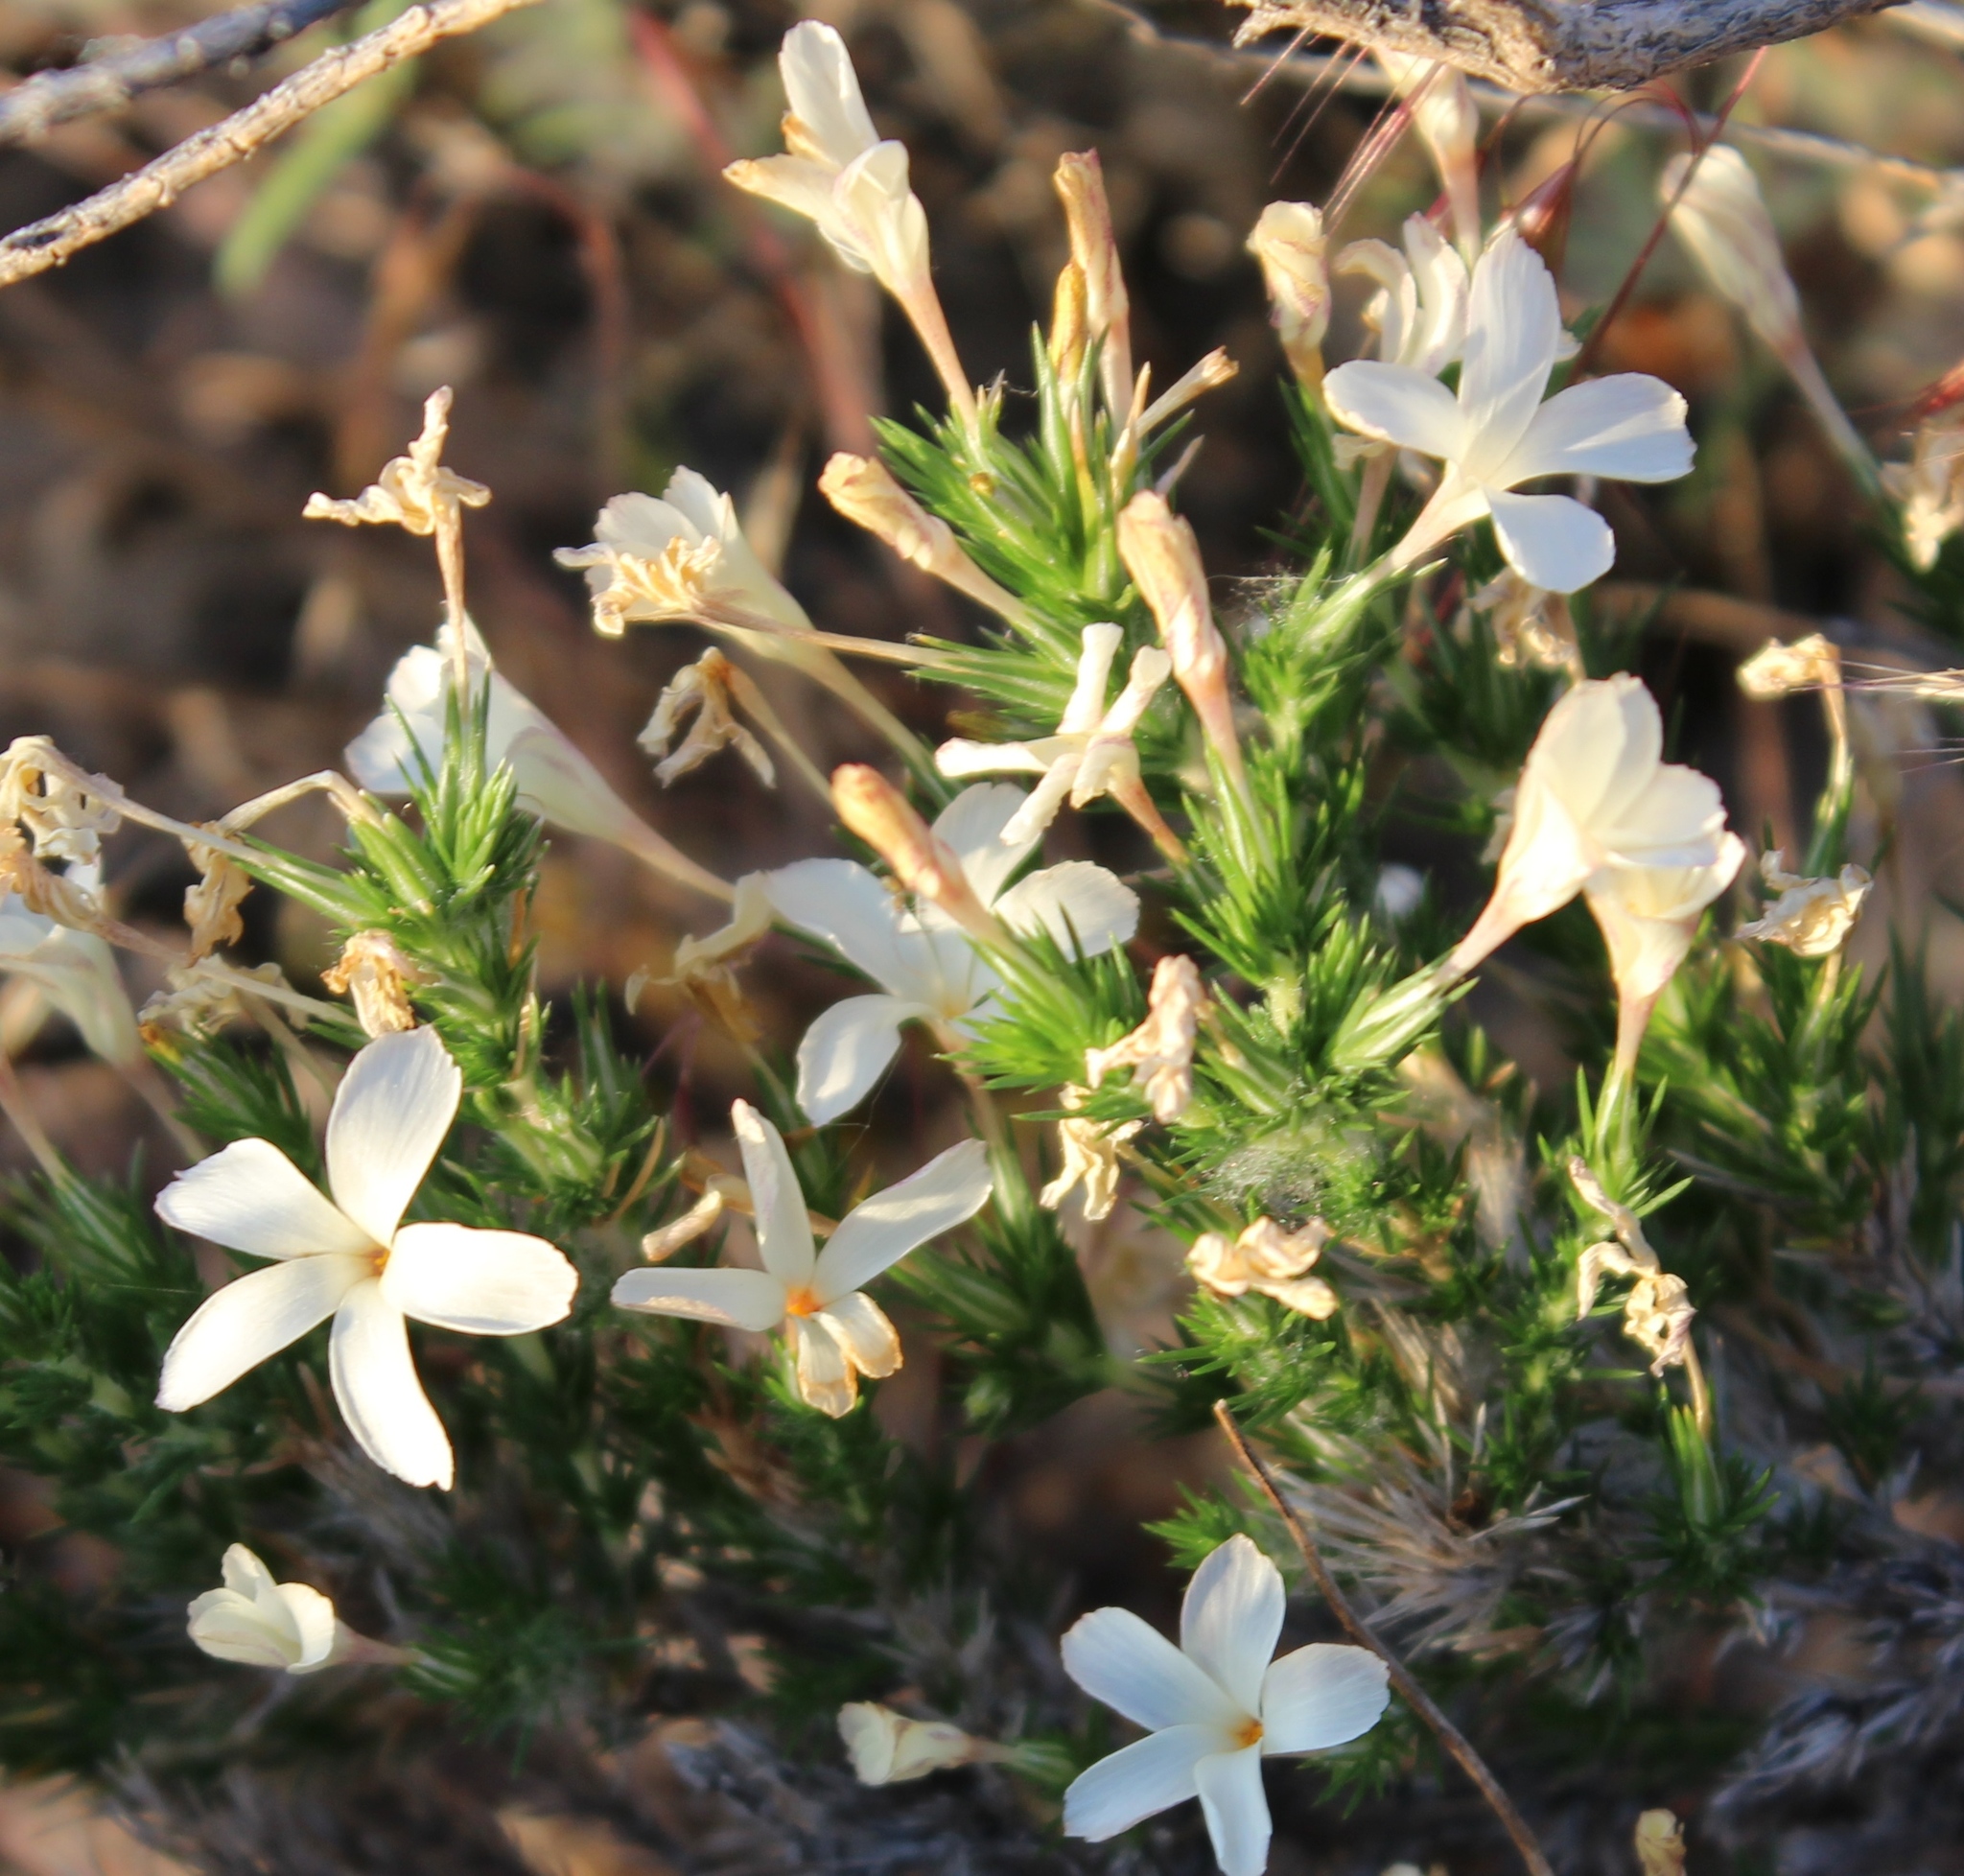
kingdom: Plantae
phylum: Tracheophyta
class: Magnoliopsida
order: Ericales
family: Polemoniaceae
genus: Linanthus
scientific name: Linanthus pungens
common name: Granite prickly phlox
